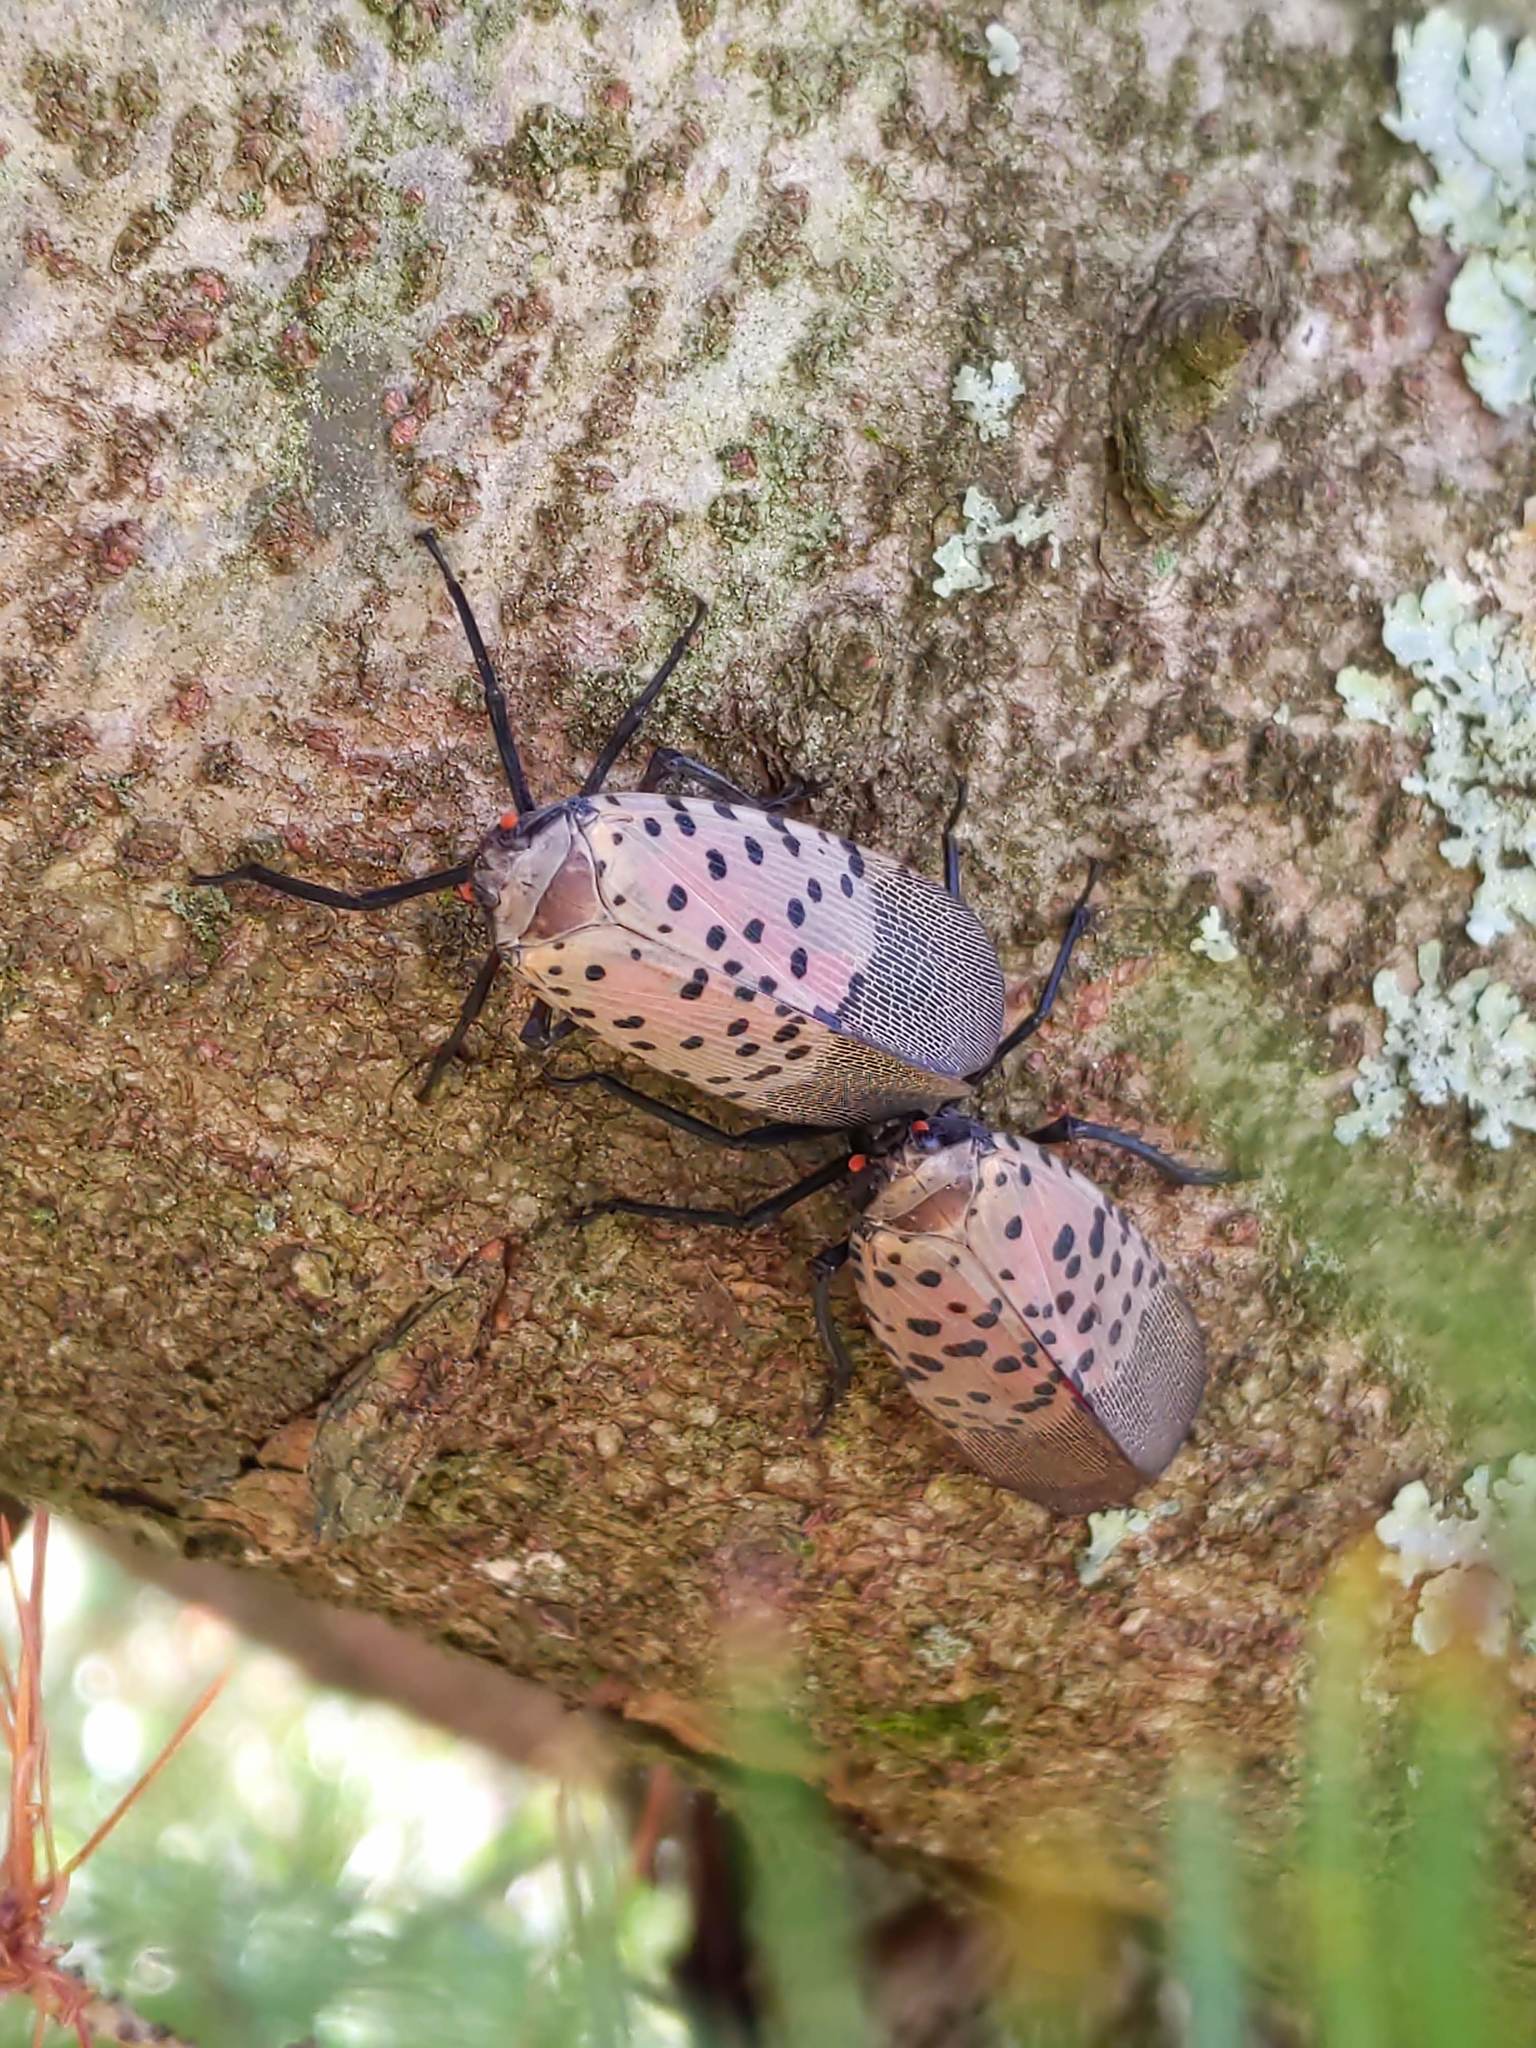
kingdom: Animalia
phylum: Arthropoda
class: Insecta
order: Hemiptera
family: Fulgoridae
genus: Lycorma
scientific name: Lycorma delicatula
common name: Spotted lanternfly
